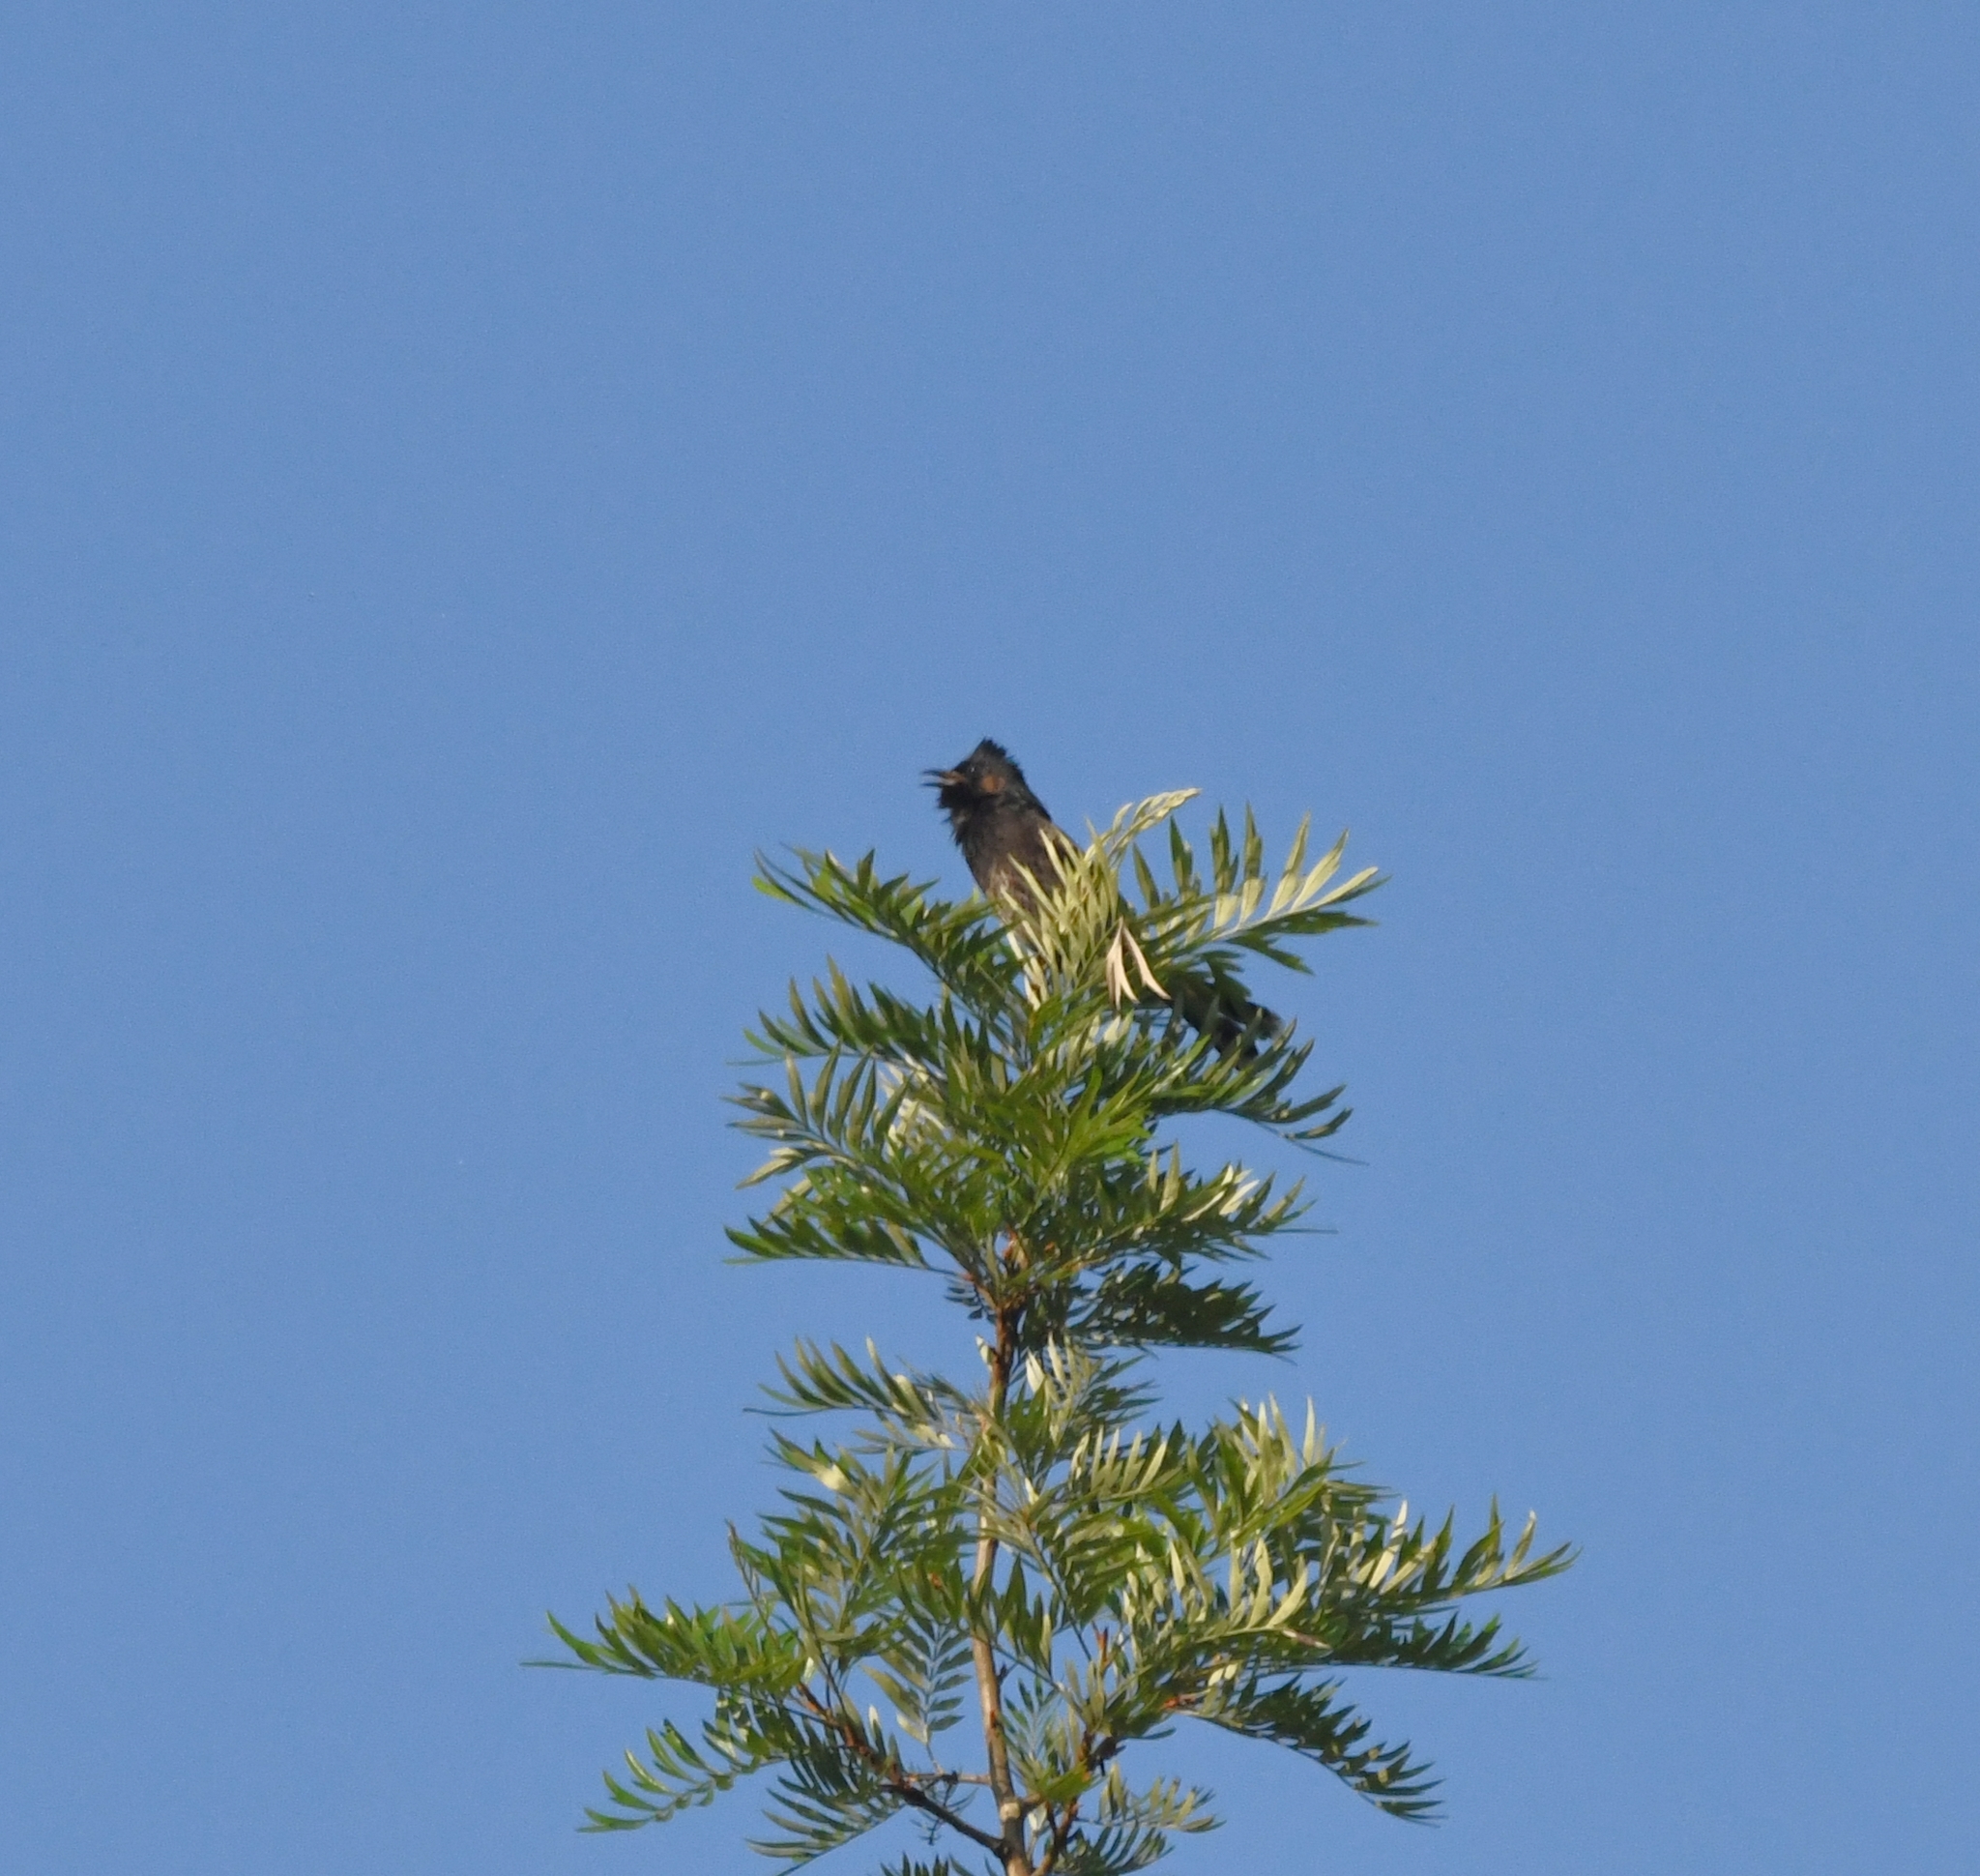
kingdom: Animalia
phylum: Chordata
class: Aves
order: Passeriformes
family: Pycnonotidae
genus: Pycnonotus
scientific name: Pycnonotus cafer
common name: Red-vented bulbul
